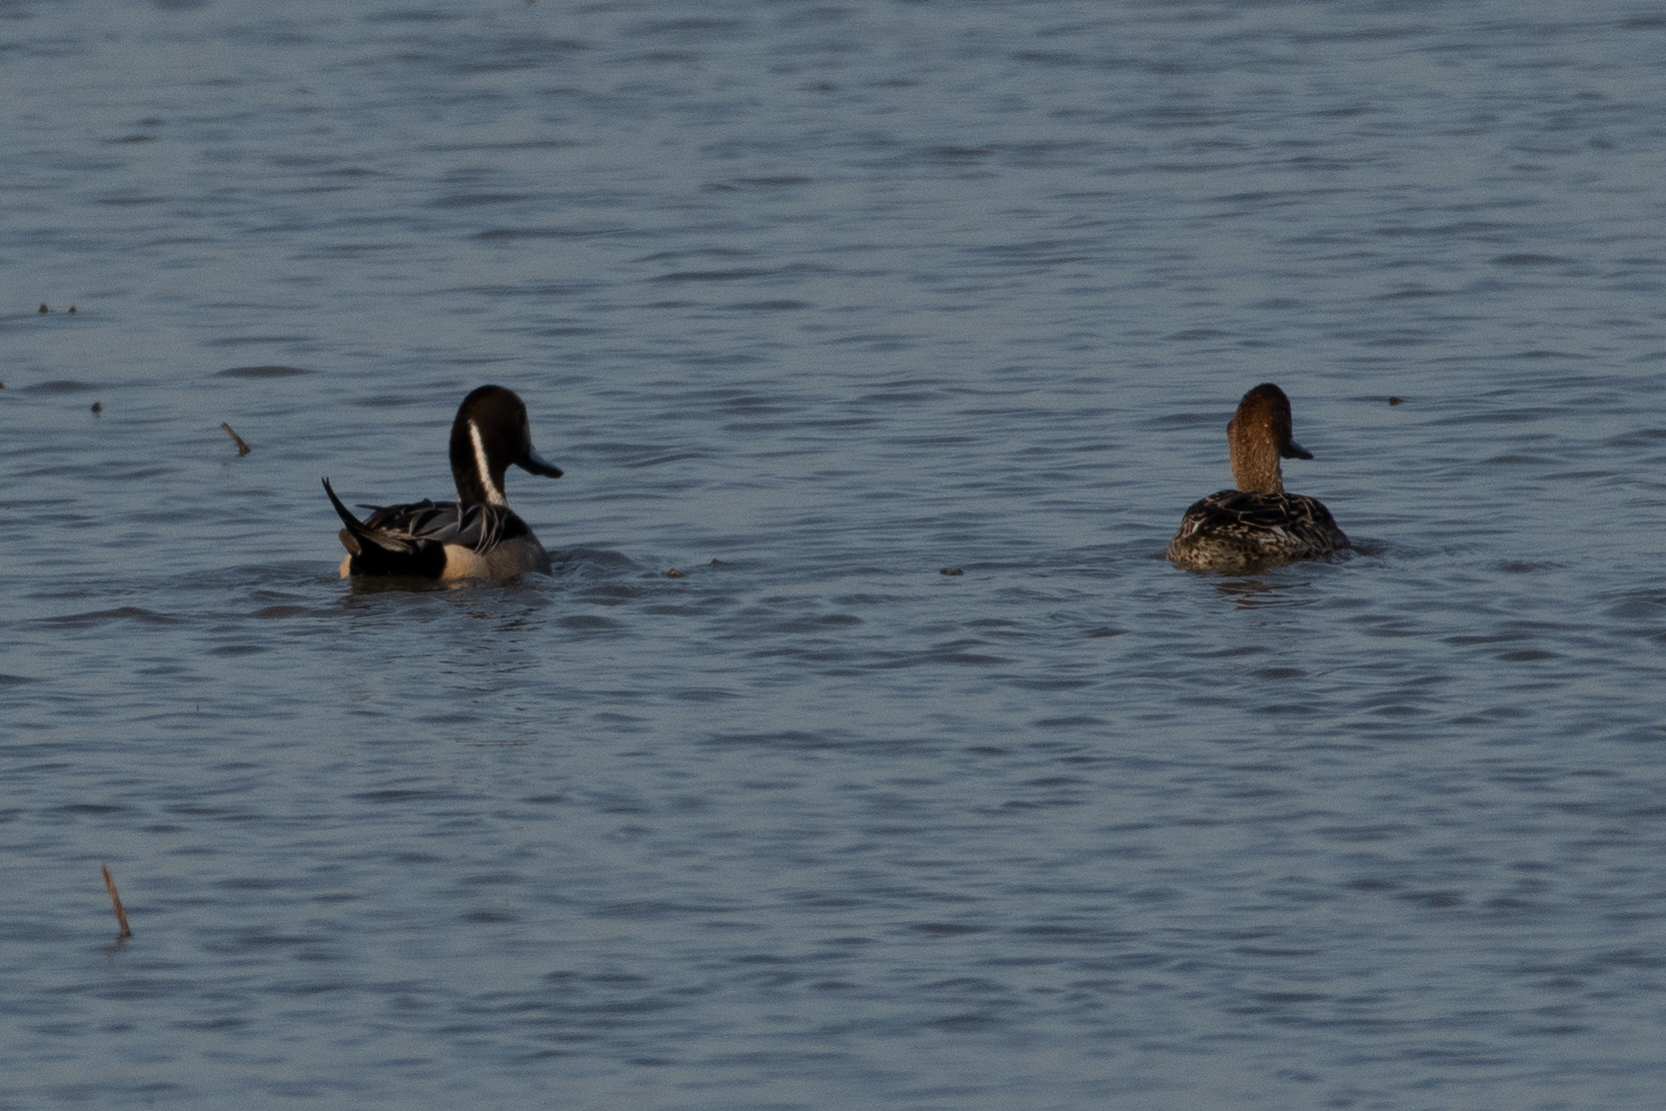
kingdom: Animalia
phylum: Chordata
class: Aves
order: Anseriformes
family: Anatidae
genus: Anas
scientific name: Anas acuta
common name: Northern pintail
